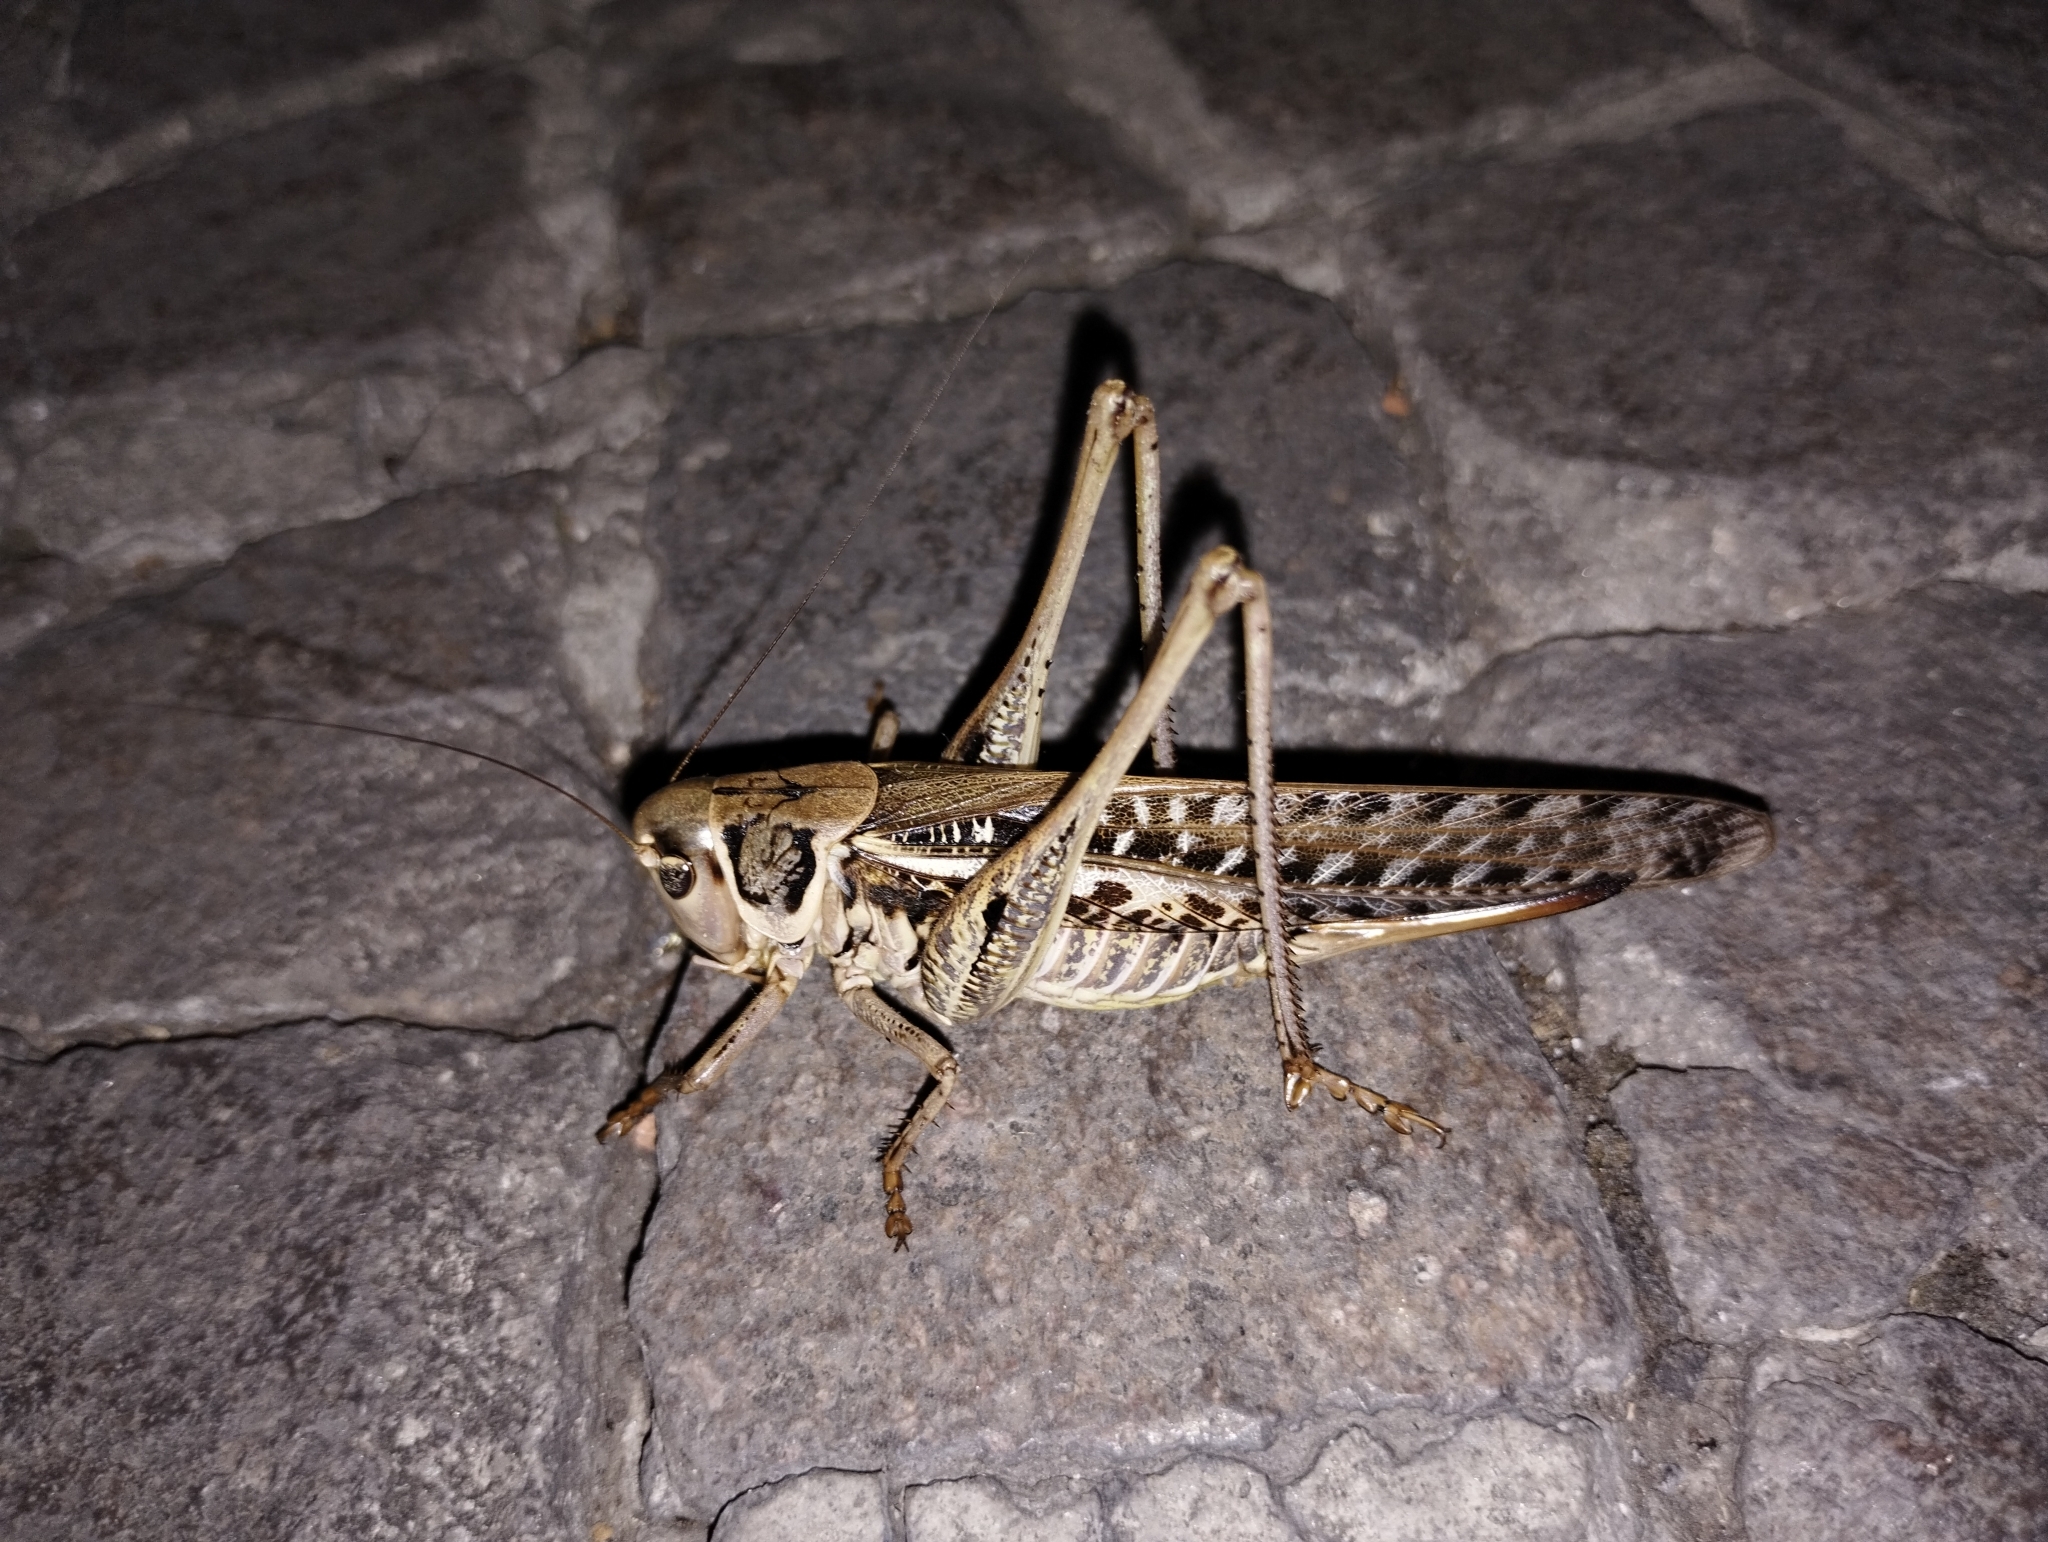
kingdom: Animalia
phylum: Arthropoda
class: Insecta
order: Orthoptera
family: Tettigoniidae
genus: Decticus
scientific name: Decticus albifrons
